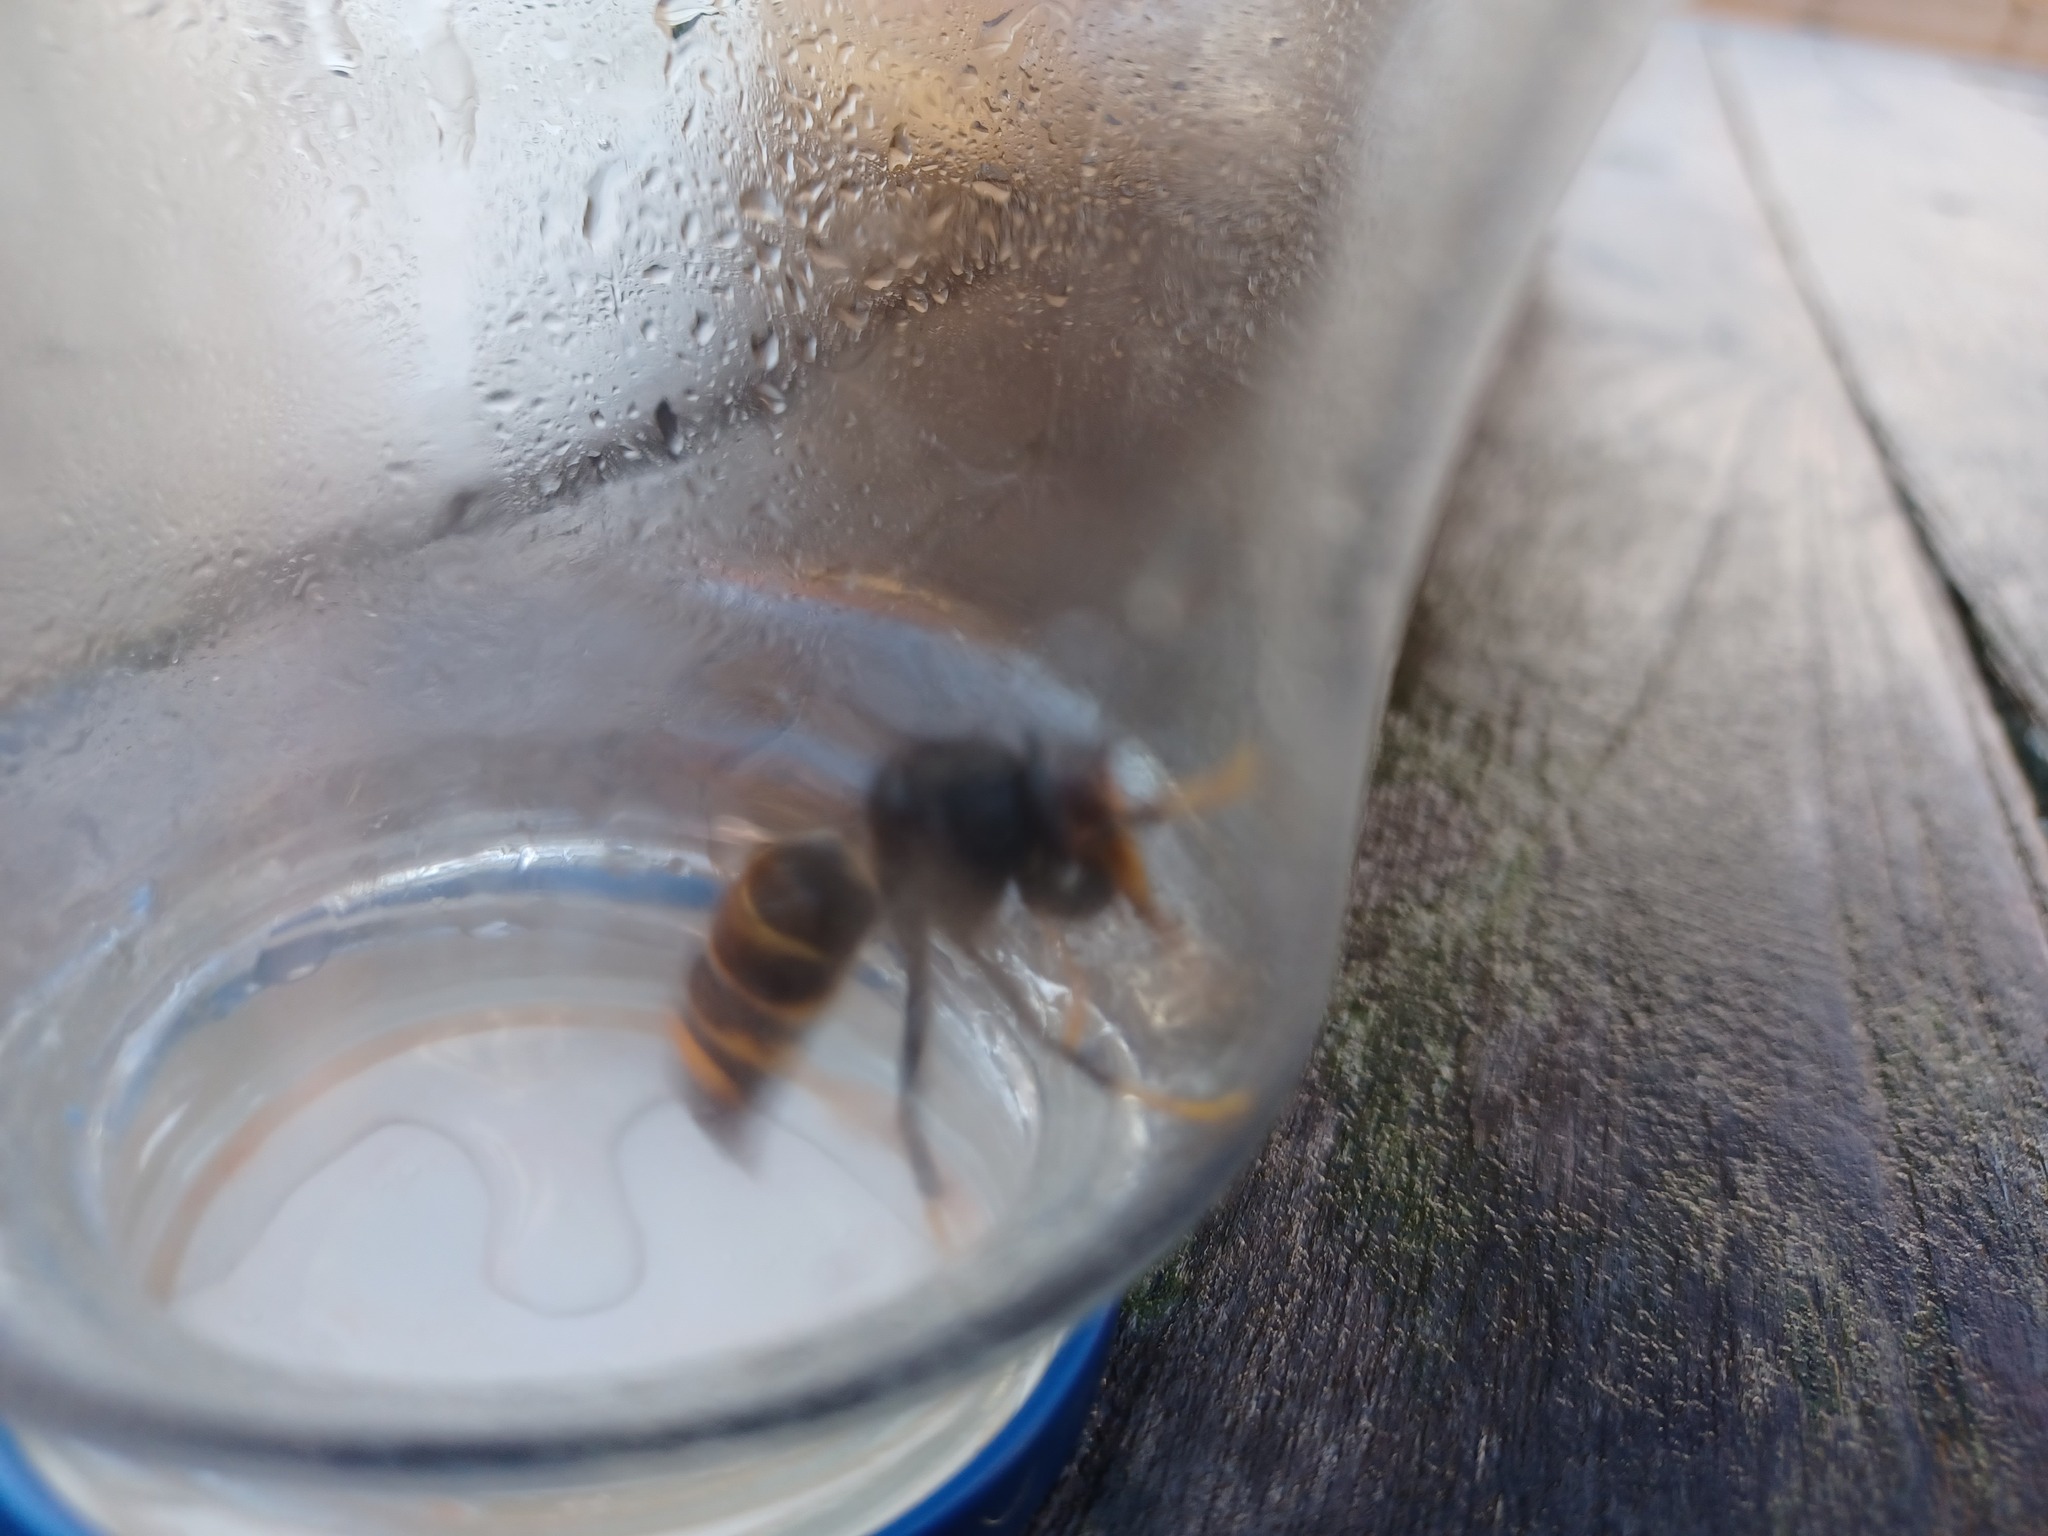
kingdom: Animalia
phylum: Arthropoda
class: Insecta
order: Hymenoptera
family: Vespidae
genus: Vespa
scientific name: Vespa velutina
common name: Asian hornet
